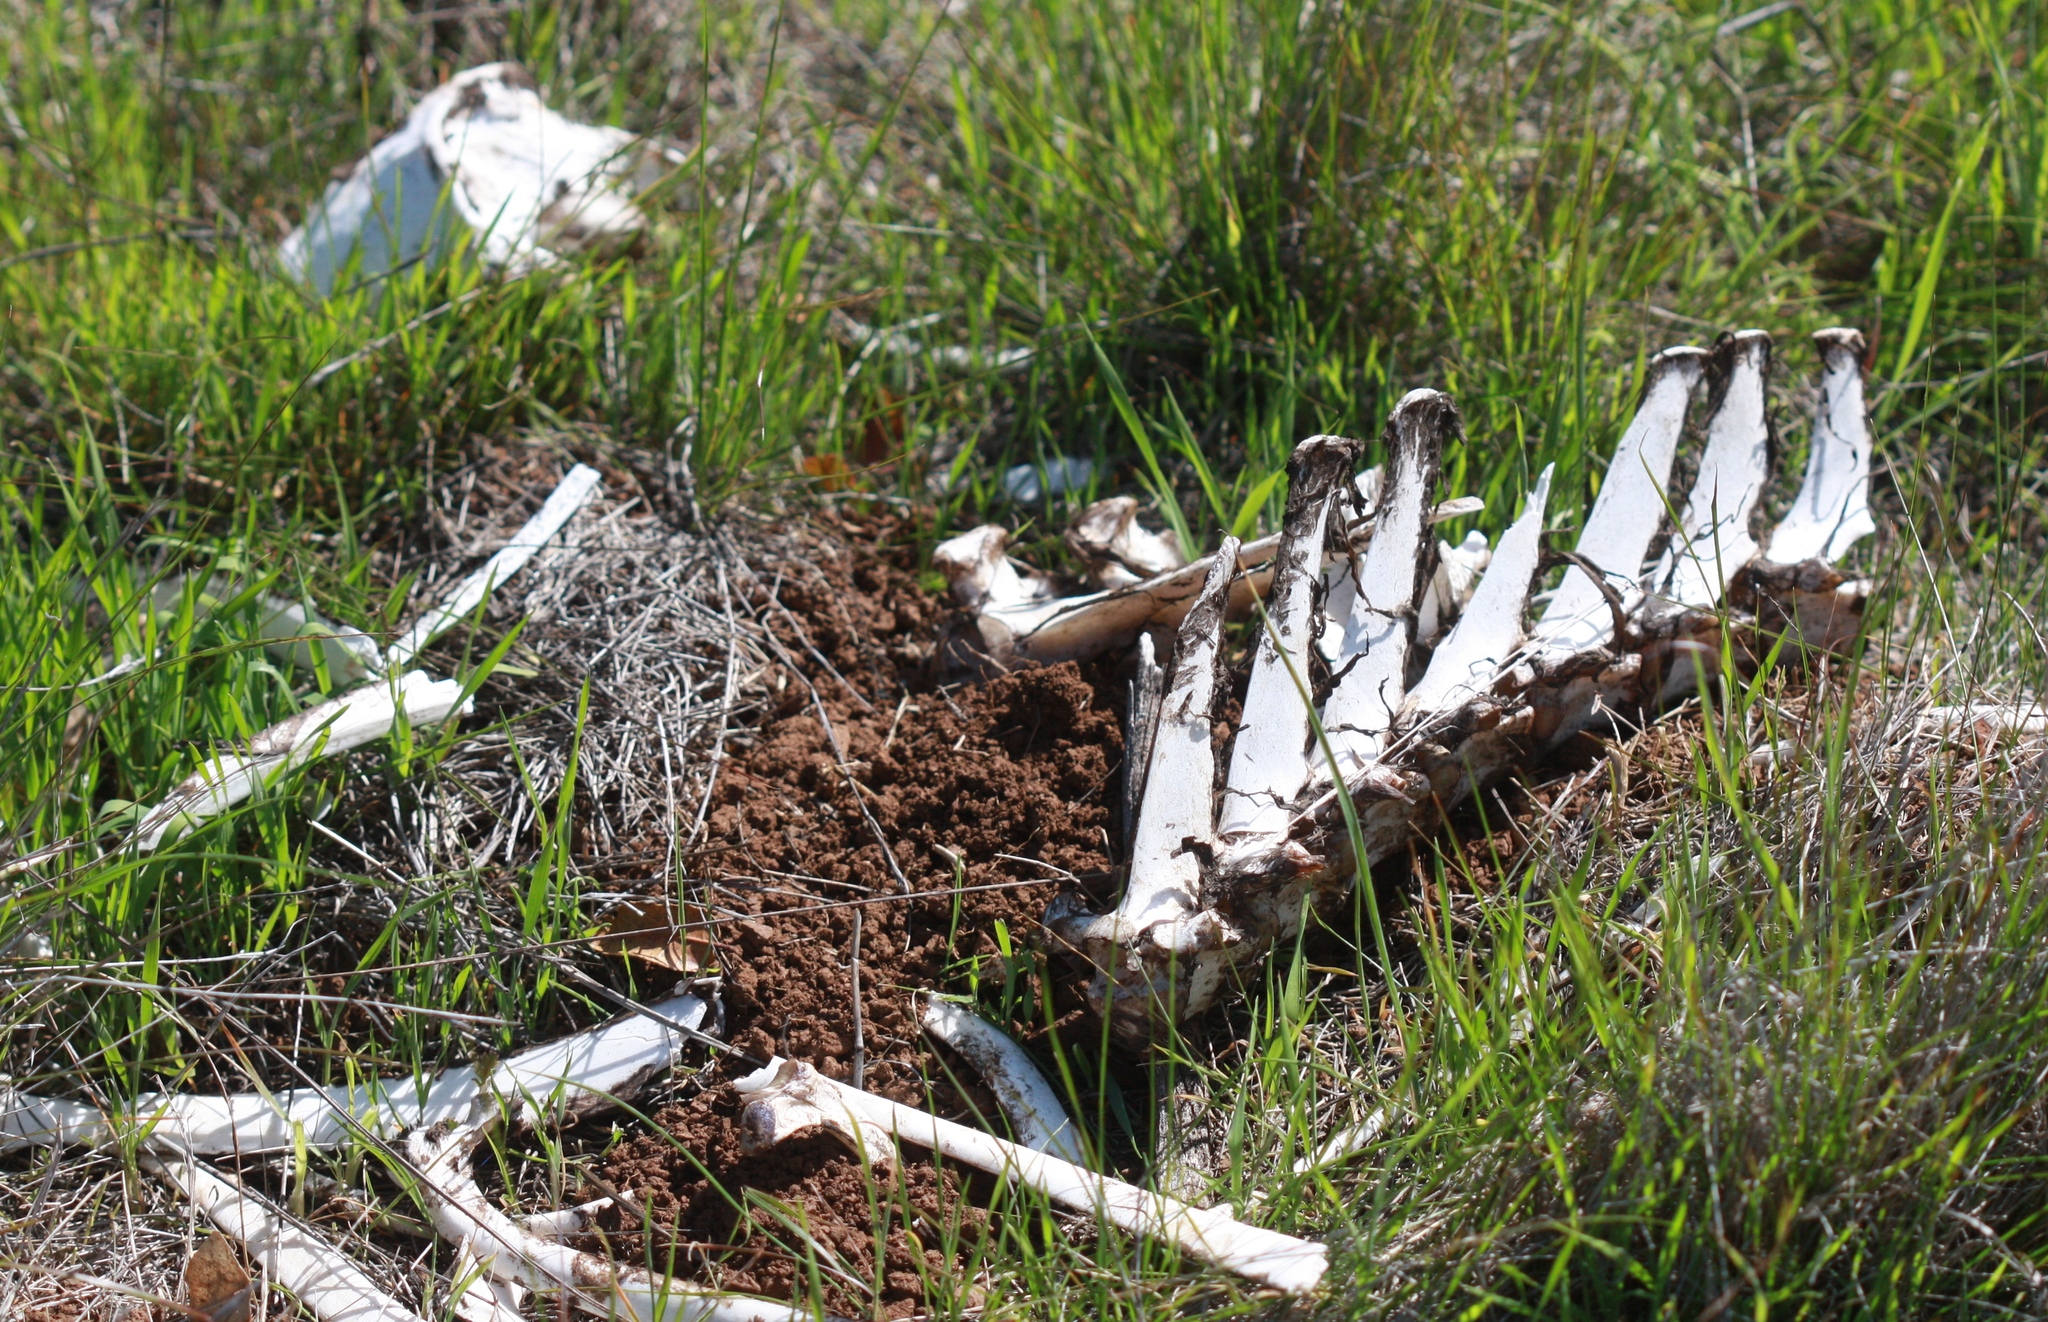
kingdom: Animalia
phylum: Chordata
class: Mammalia
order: Artiodactyla
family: Cervidae
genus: Odocoileus
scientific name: Odocoileus hemionus
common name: Mule deer
